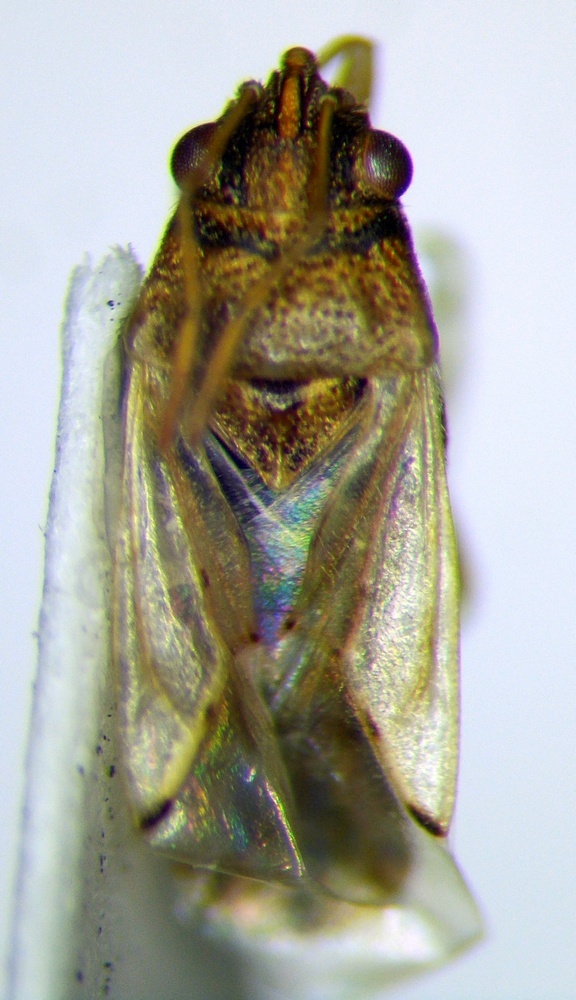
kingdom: Animalia
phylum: Arthropoda
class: Insecta
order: Hemiptera
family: Lygaeidae
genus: Nysius
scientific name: Nysius cymoides
